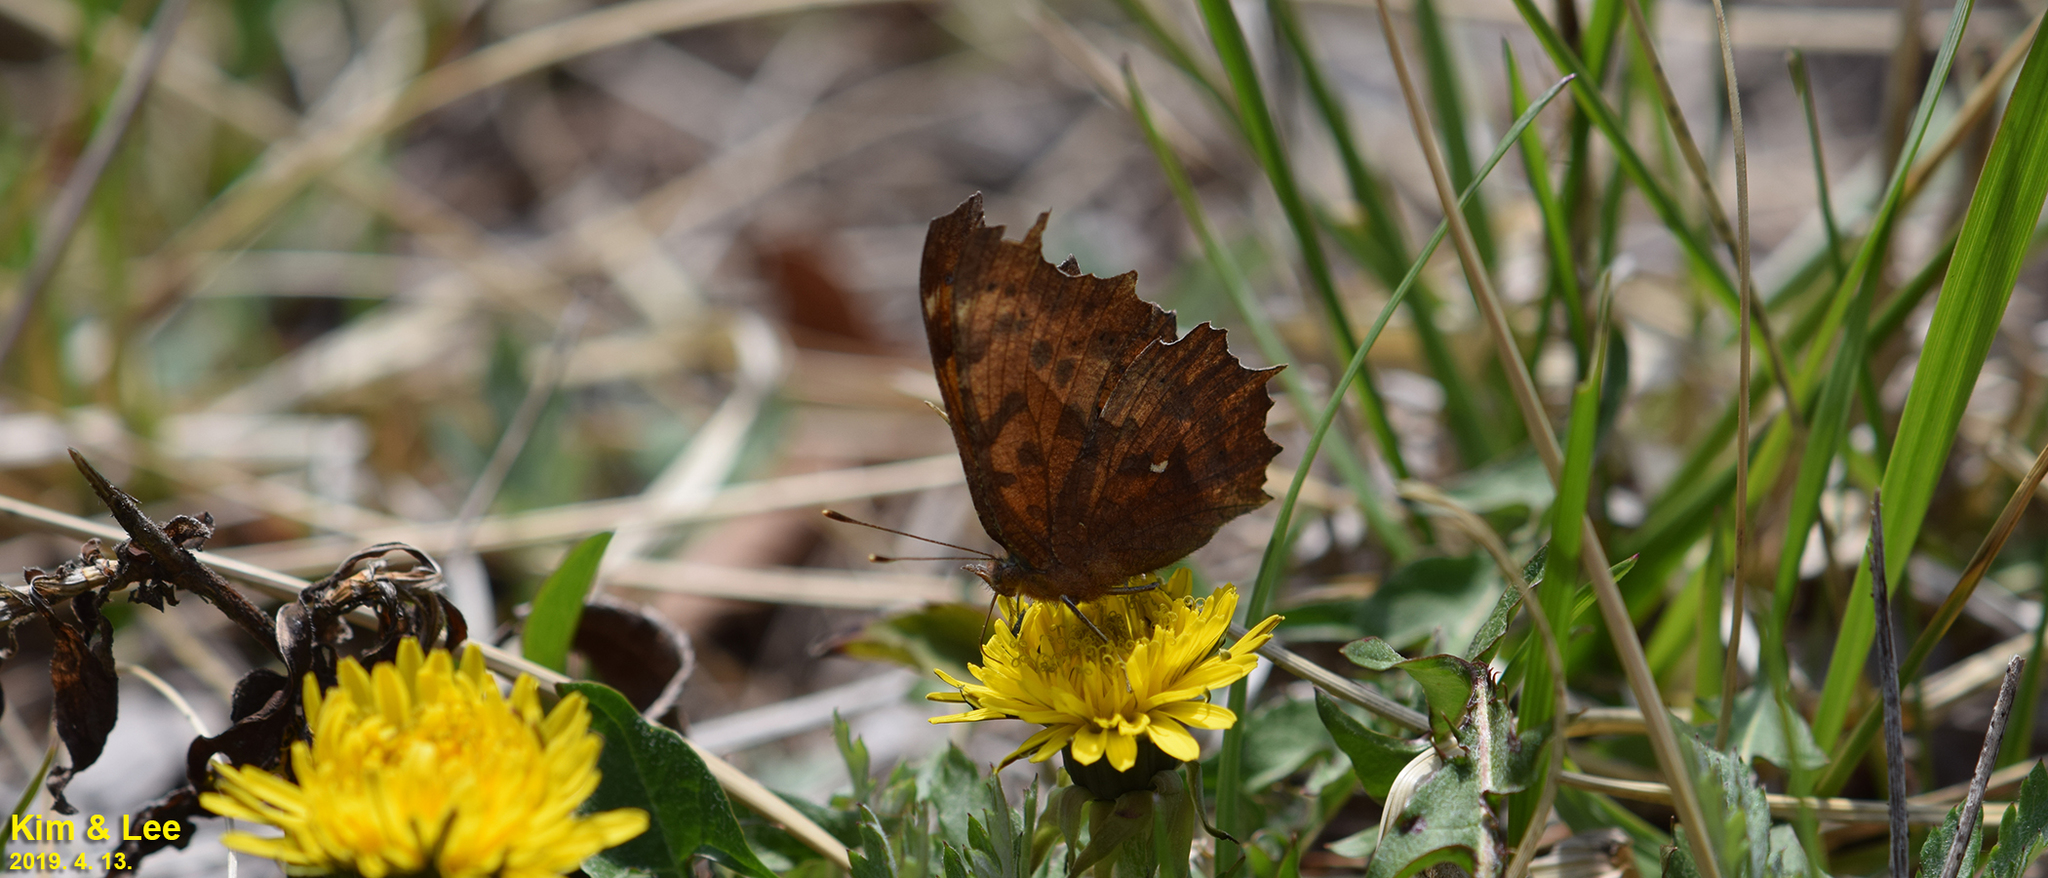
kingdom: Animalia
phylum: Arthropoda
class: Insecta
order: Lepidoptera
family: Nymphalidae
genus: Polygonia
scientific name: Polygonia c-aureum
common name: Asian comma
